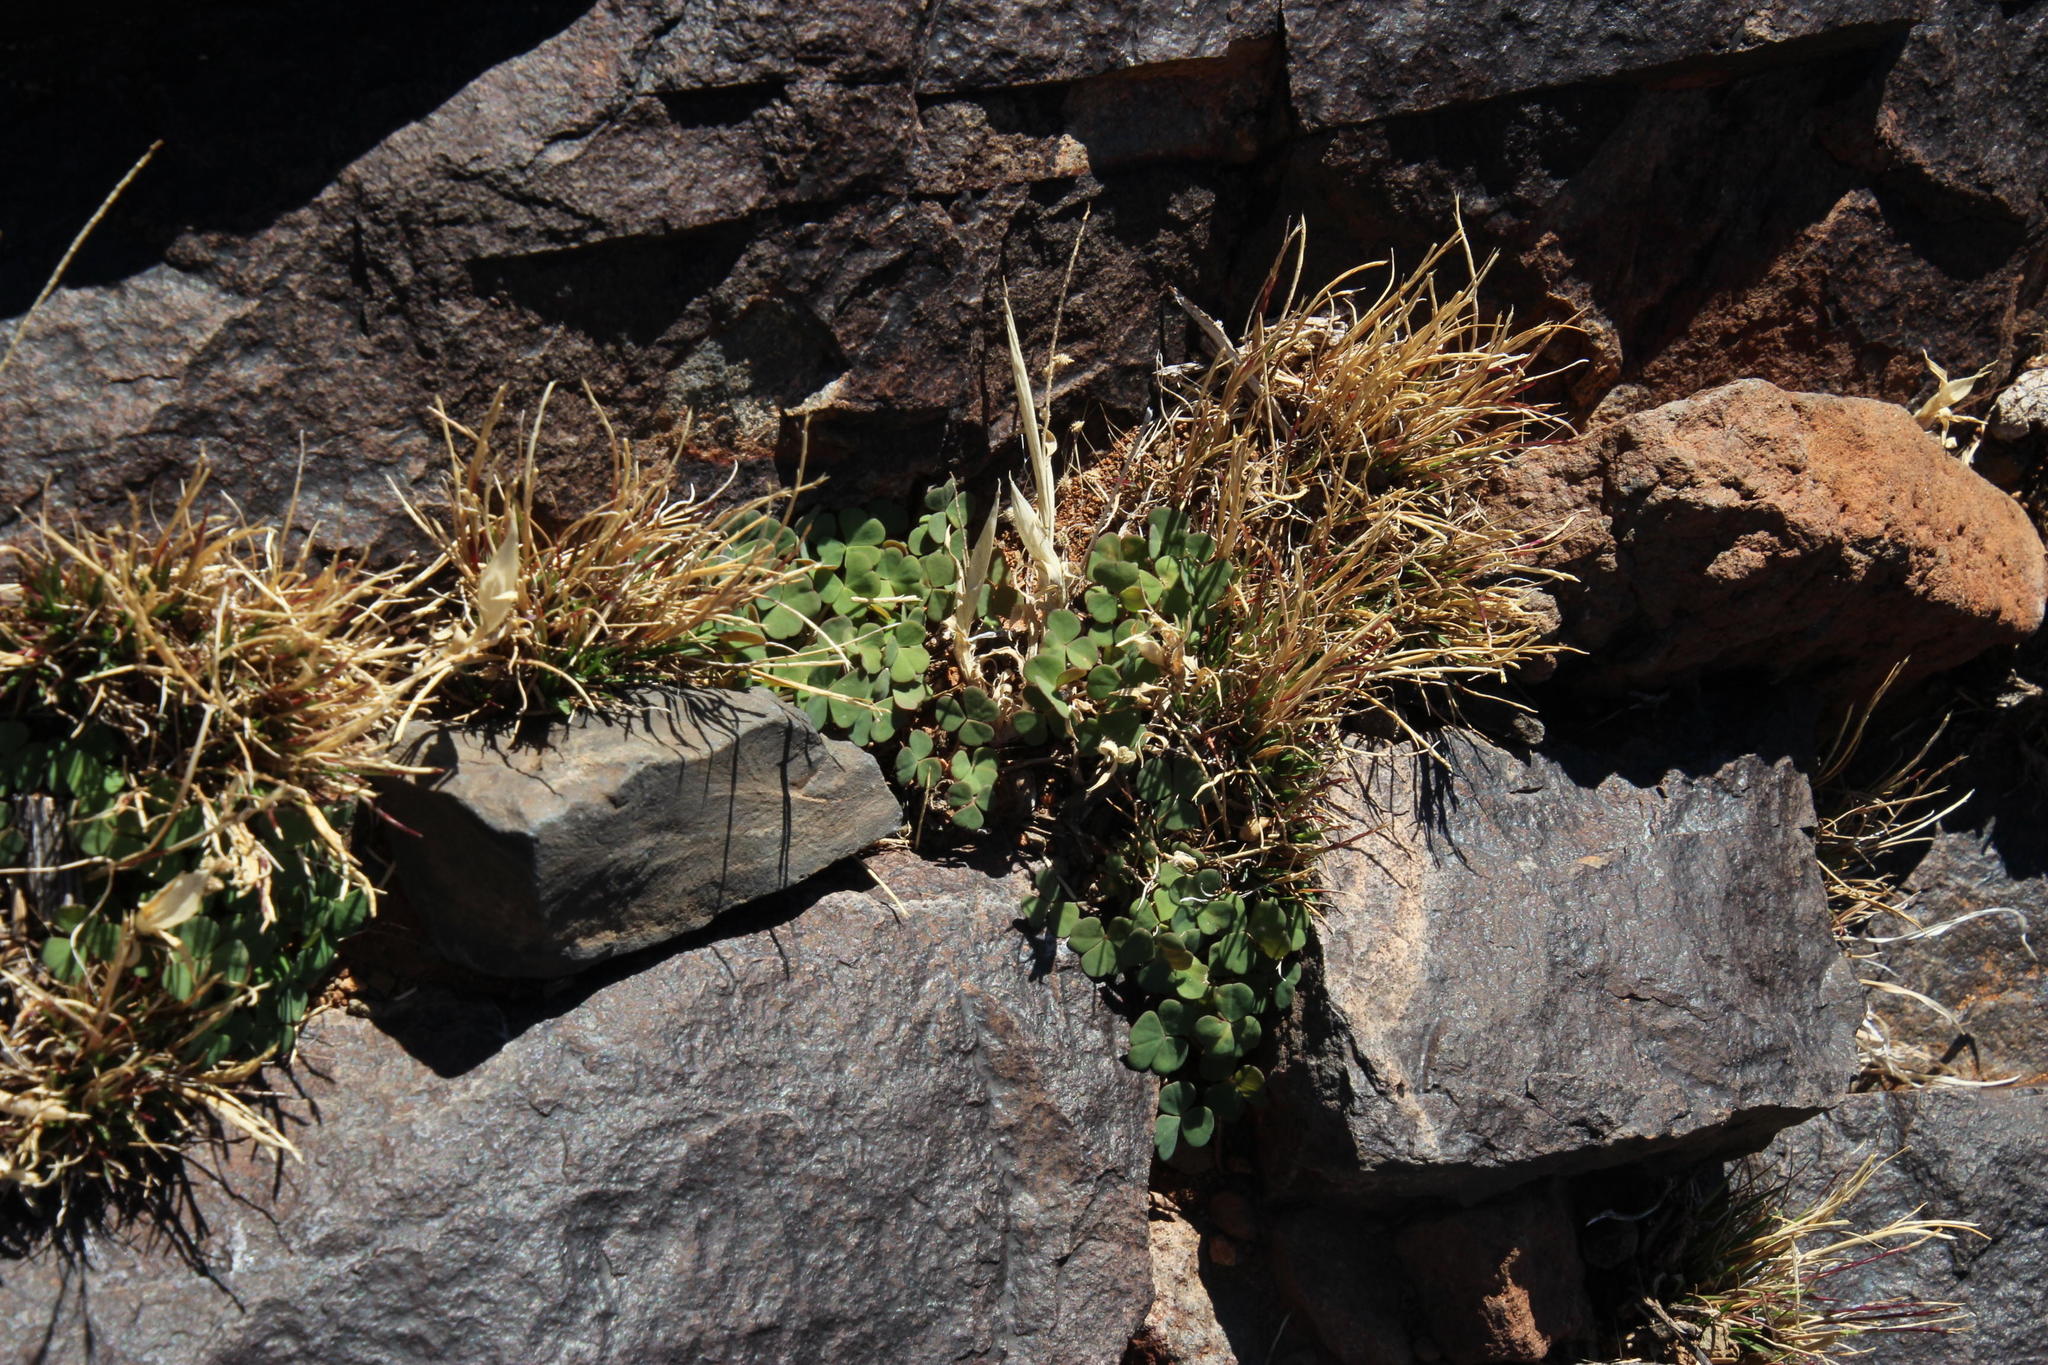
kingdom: Plantae
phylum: Tracheophyta
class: Magnoliopsida
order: Oxalidales
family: Oxalidaceae
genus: Oxalis
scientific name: Oxalis depressa
